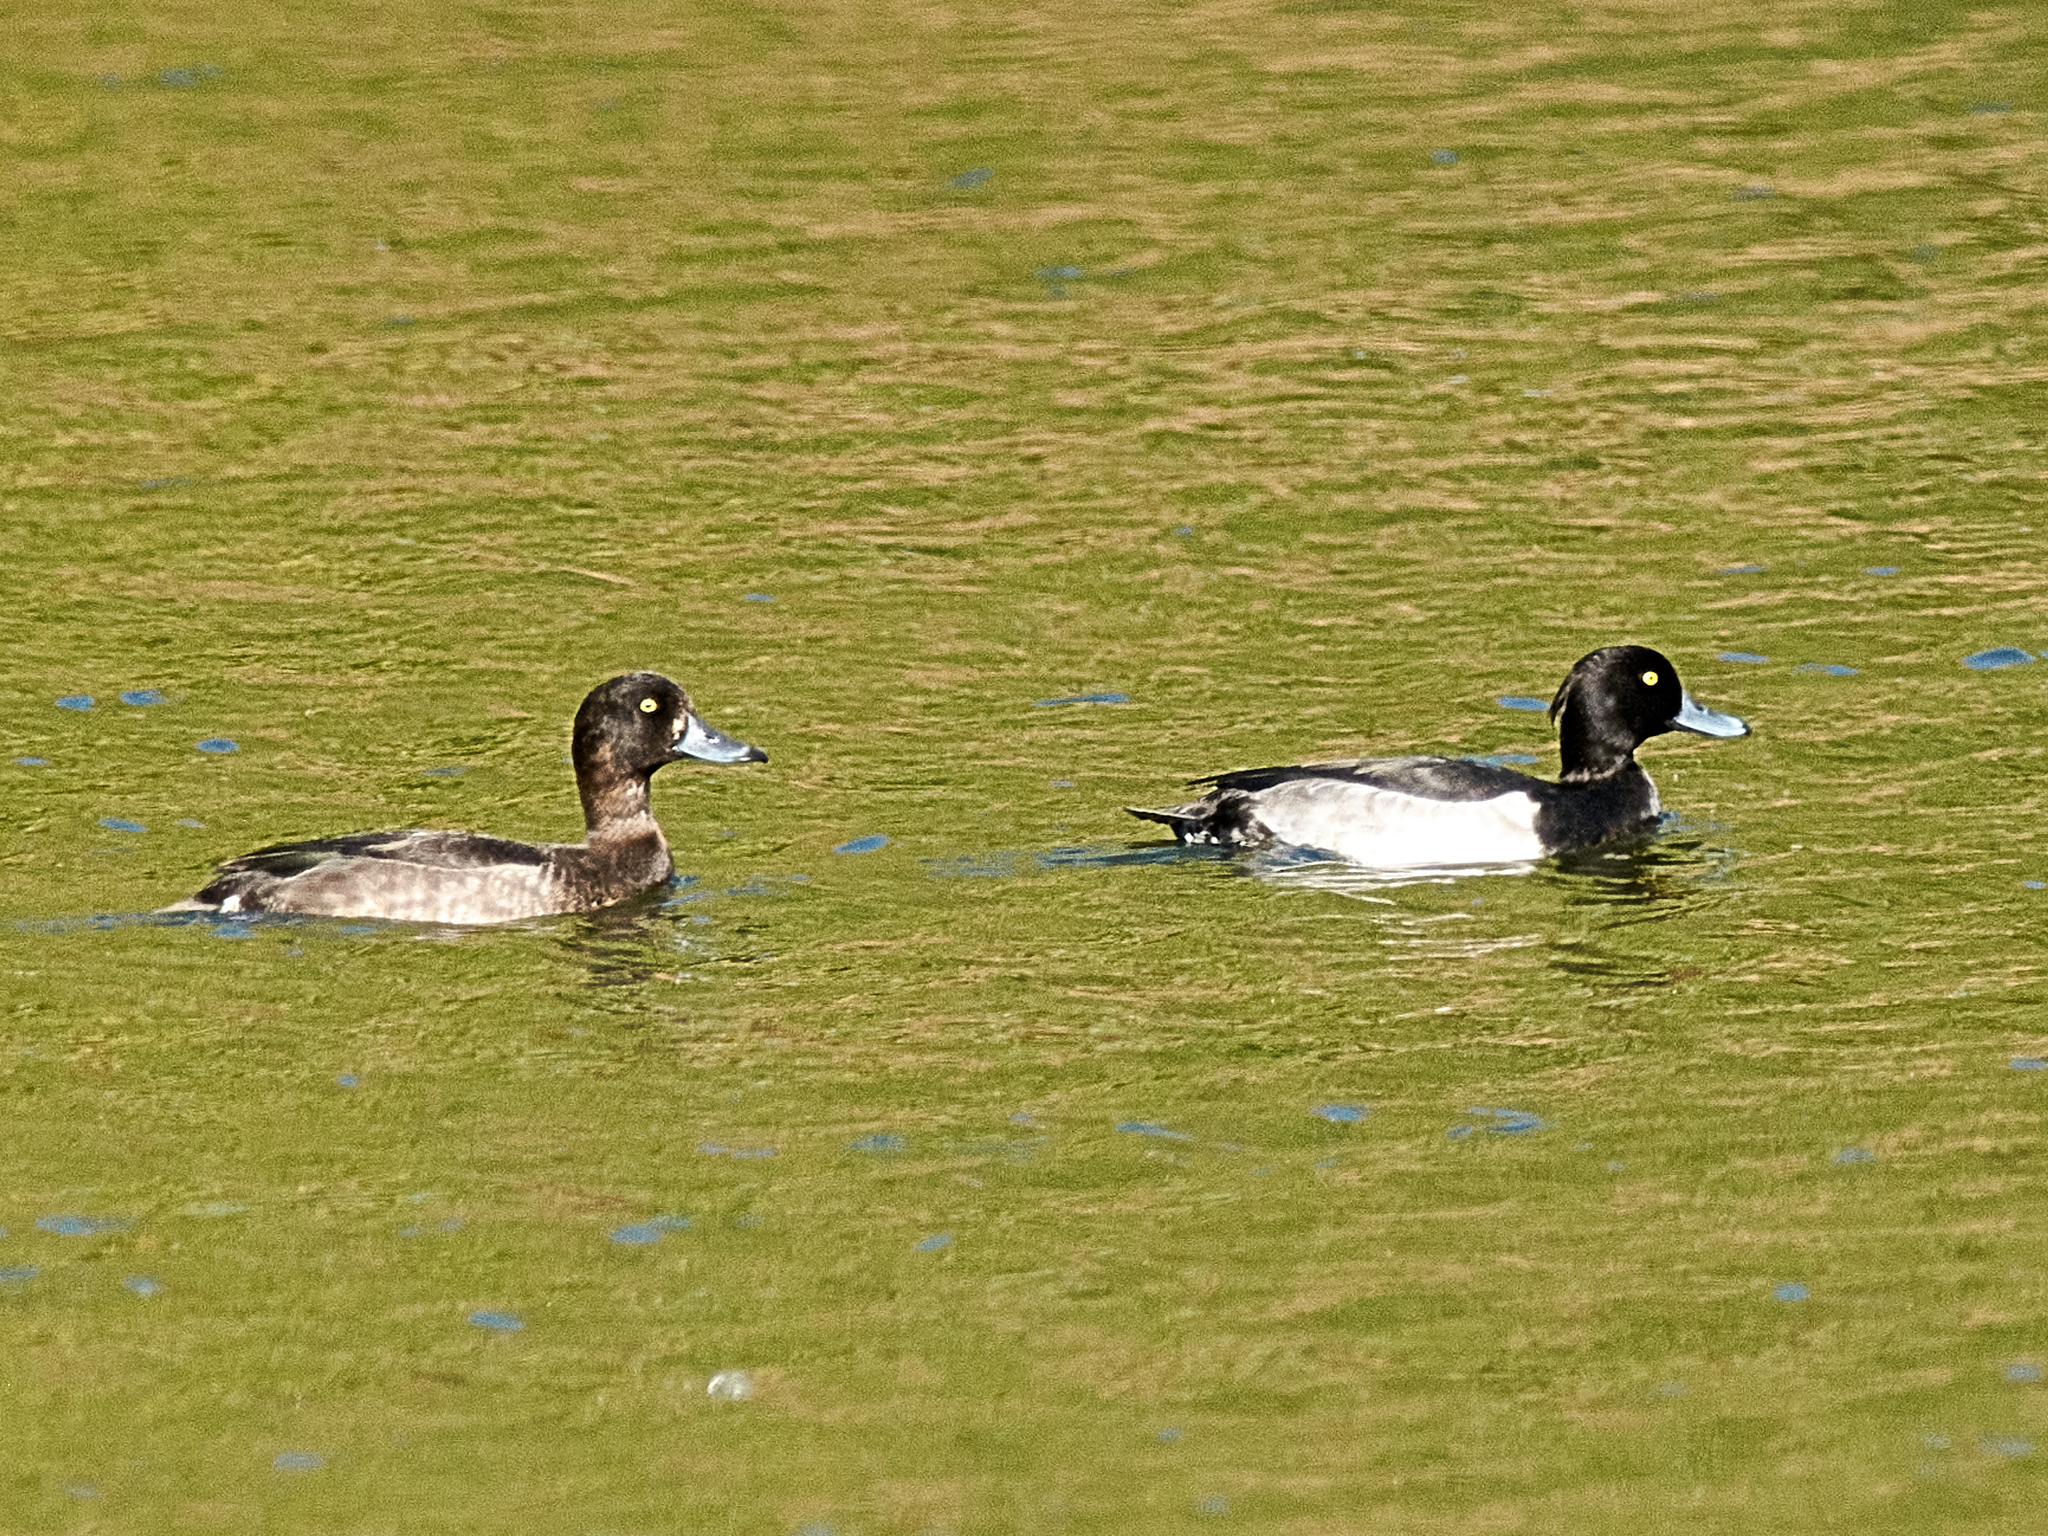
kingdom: Animalia
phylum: Chordata
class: Aves
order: Anseriformes
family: Anatidae
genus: Aythya
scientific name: Aythya fuligula
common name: Tufted duck
